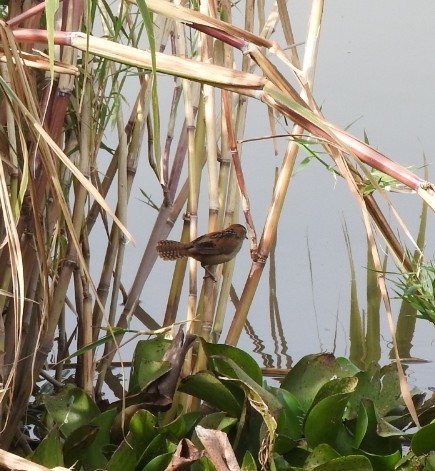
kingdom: Animalia
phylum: Chordata
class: Aves
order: Passeriformes
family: Troglodytidae
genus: Cistothorus
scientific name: Cistothorus palustris
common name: Marsh wren
